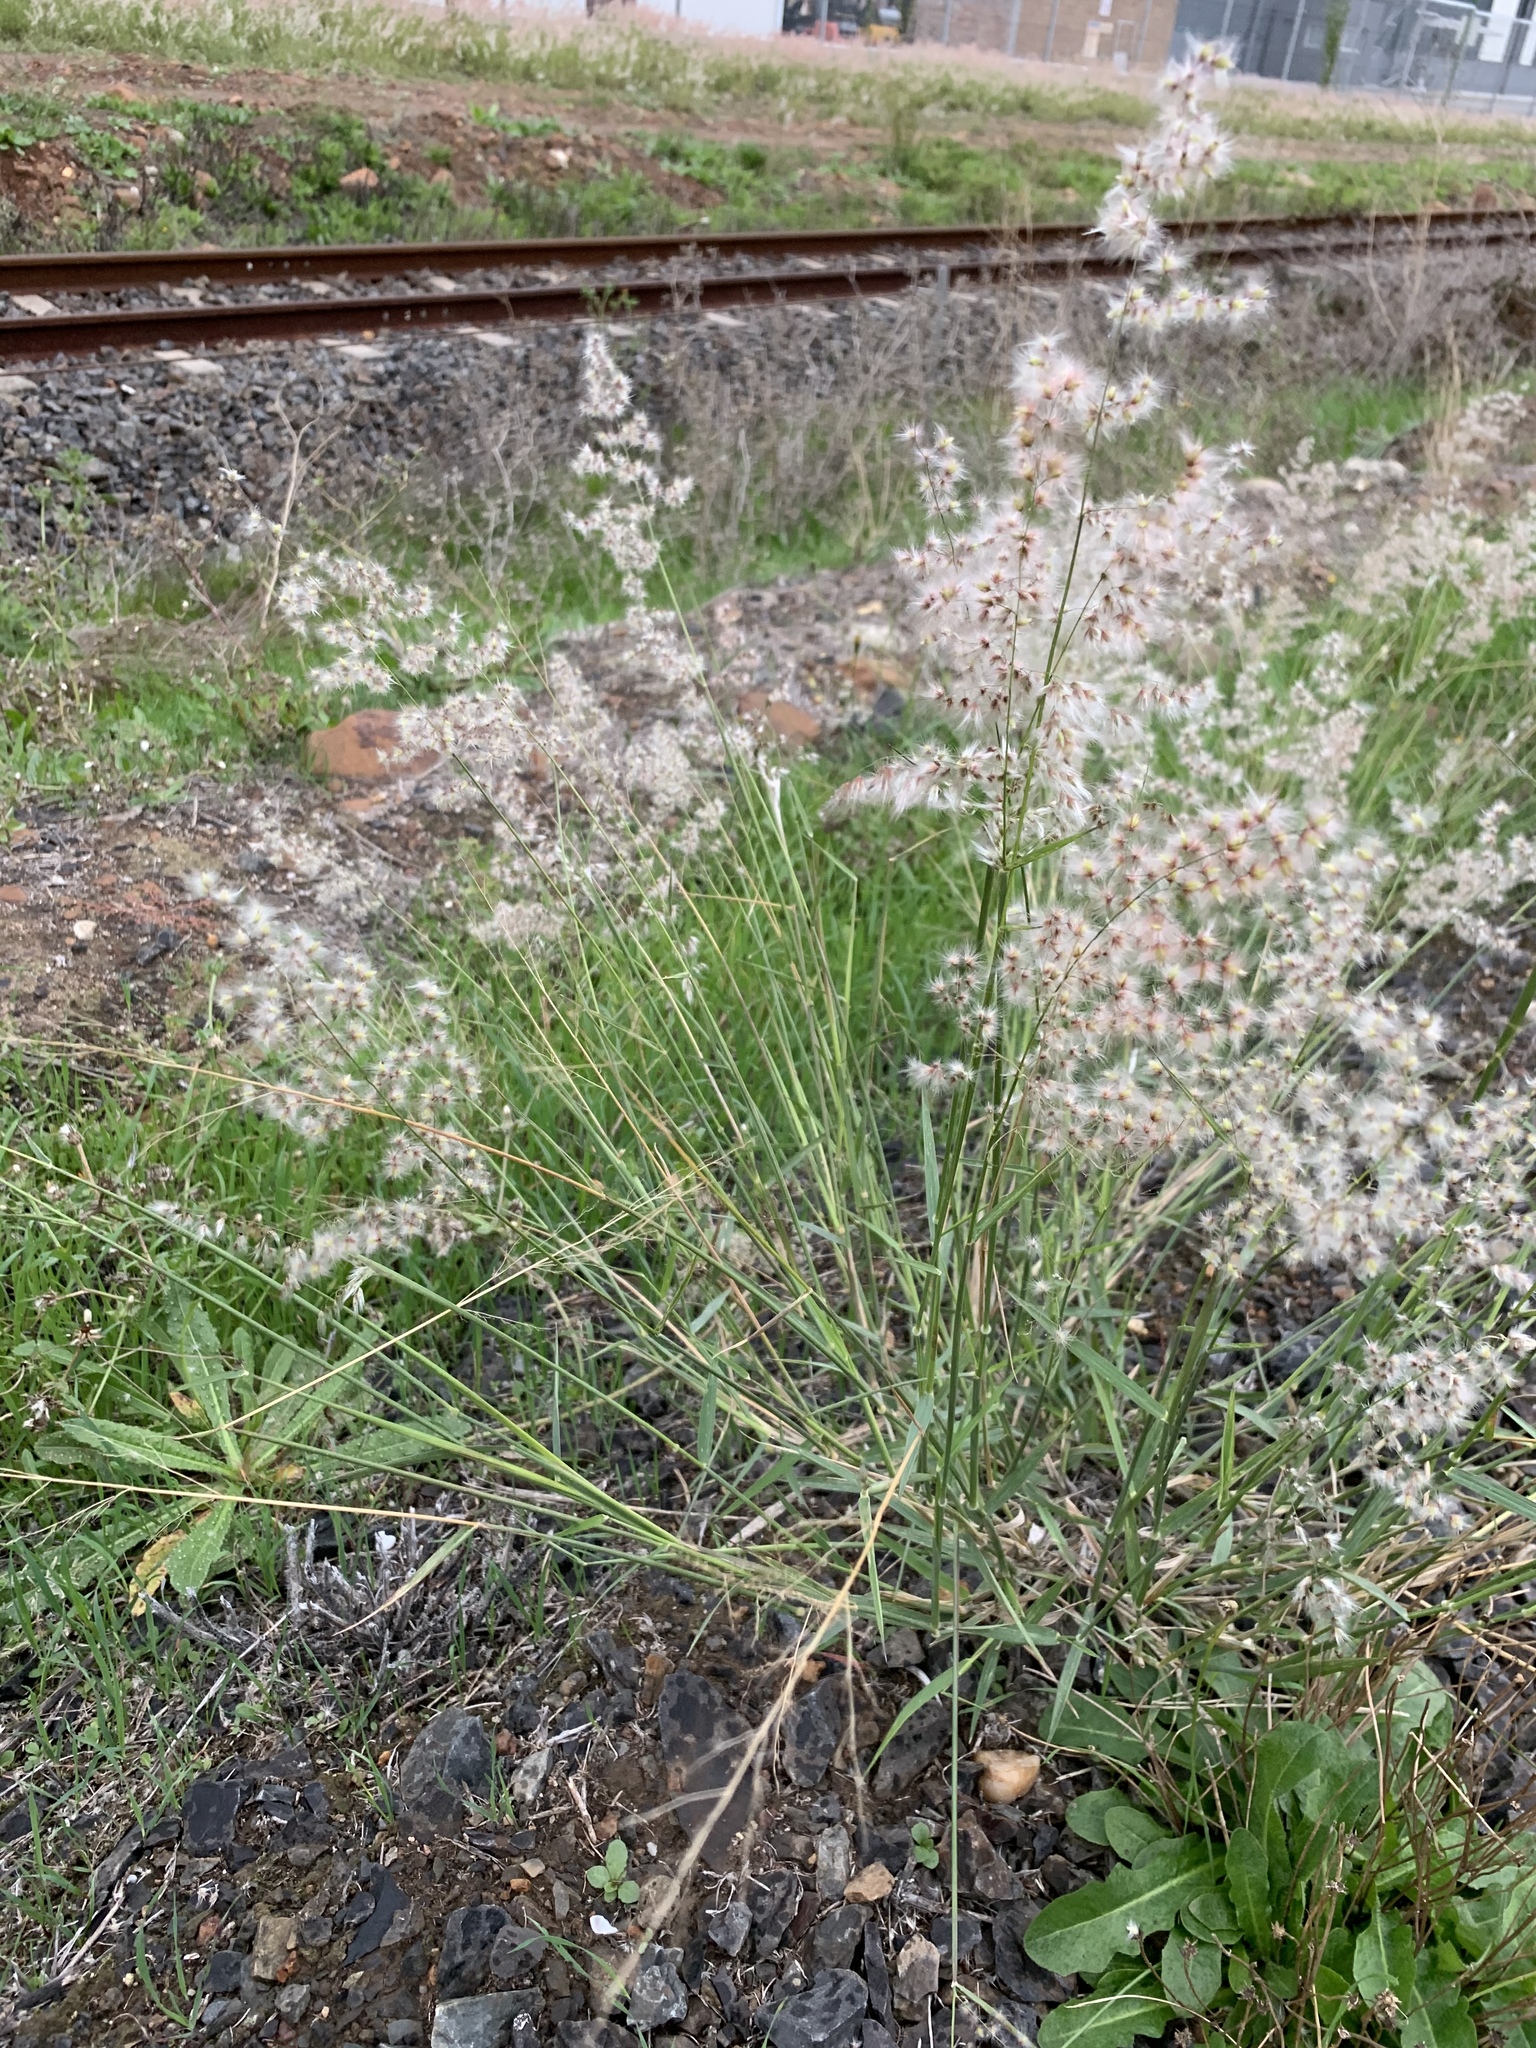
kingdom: Plantae
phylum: Tracheophyta
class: Liliopsida
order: Poales
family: Poaceae
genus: Melinis
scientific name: Melinis repens
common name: Rose natal grass
